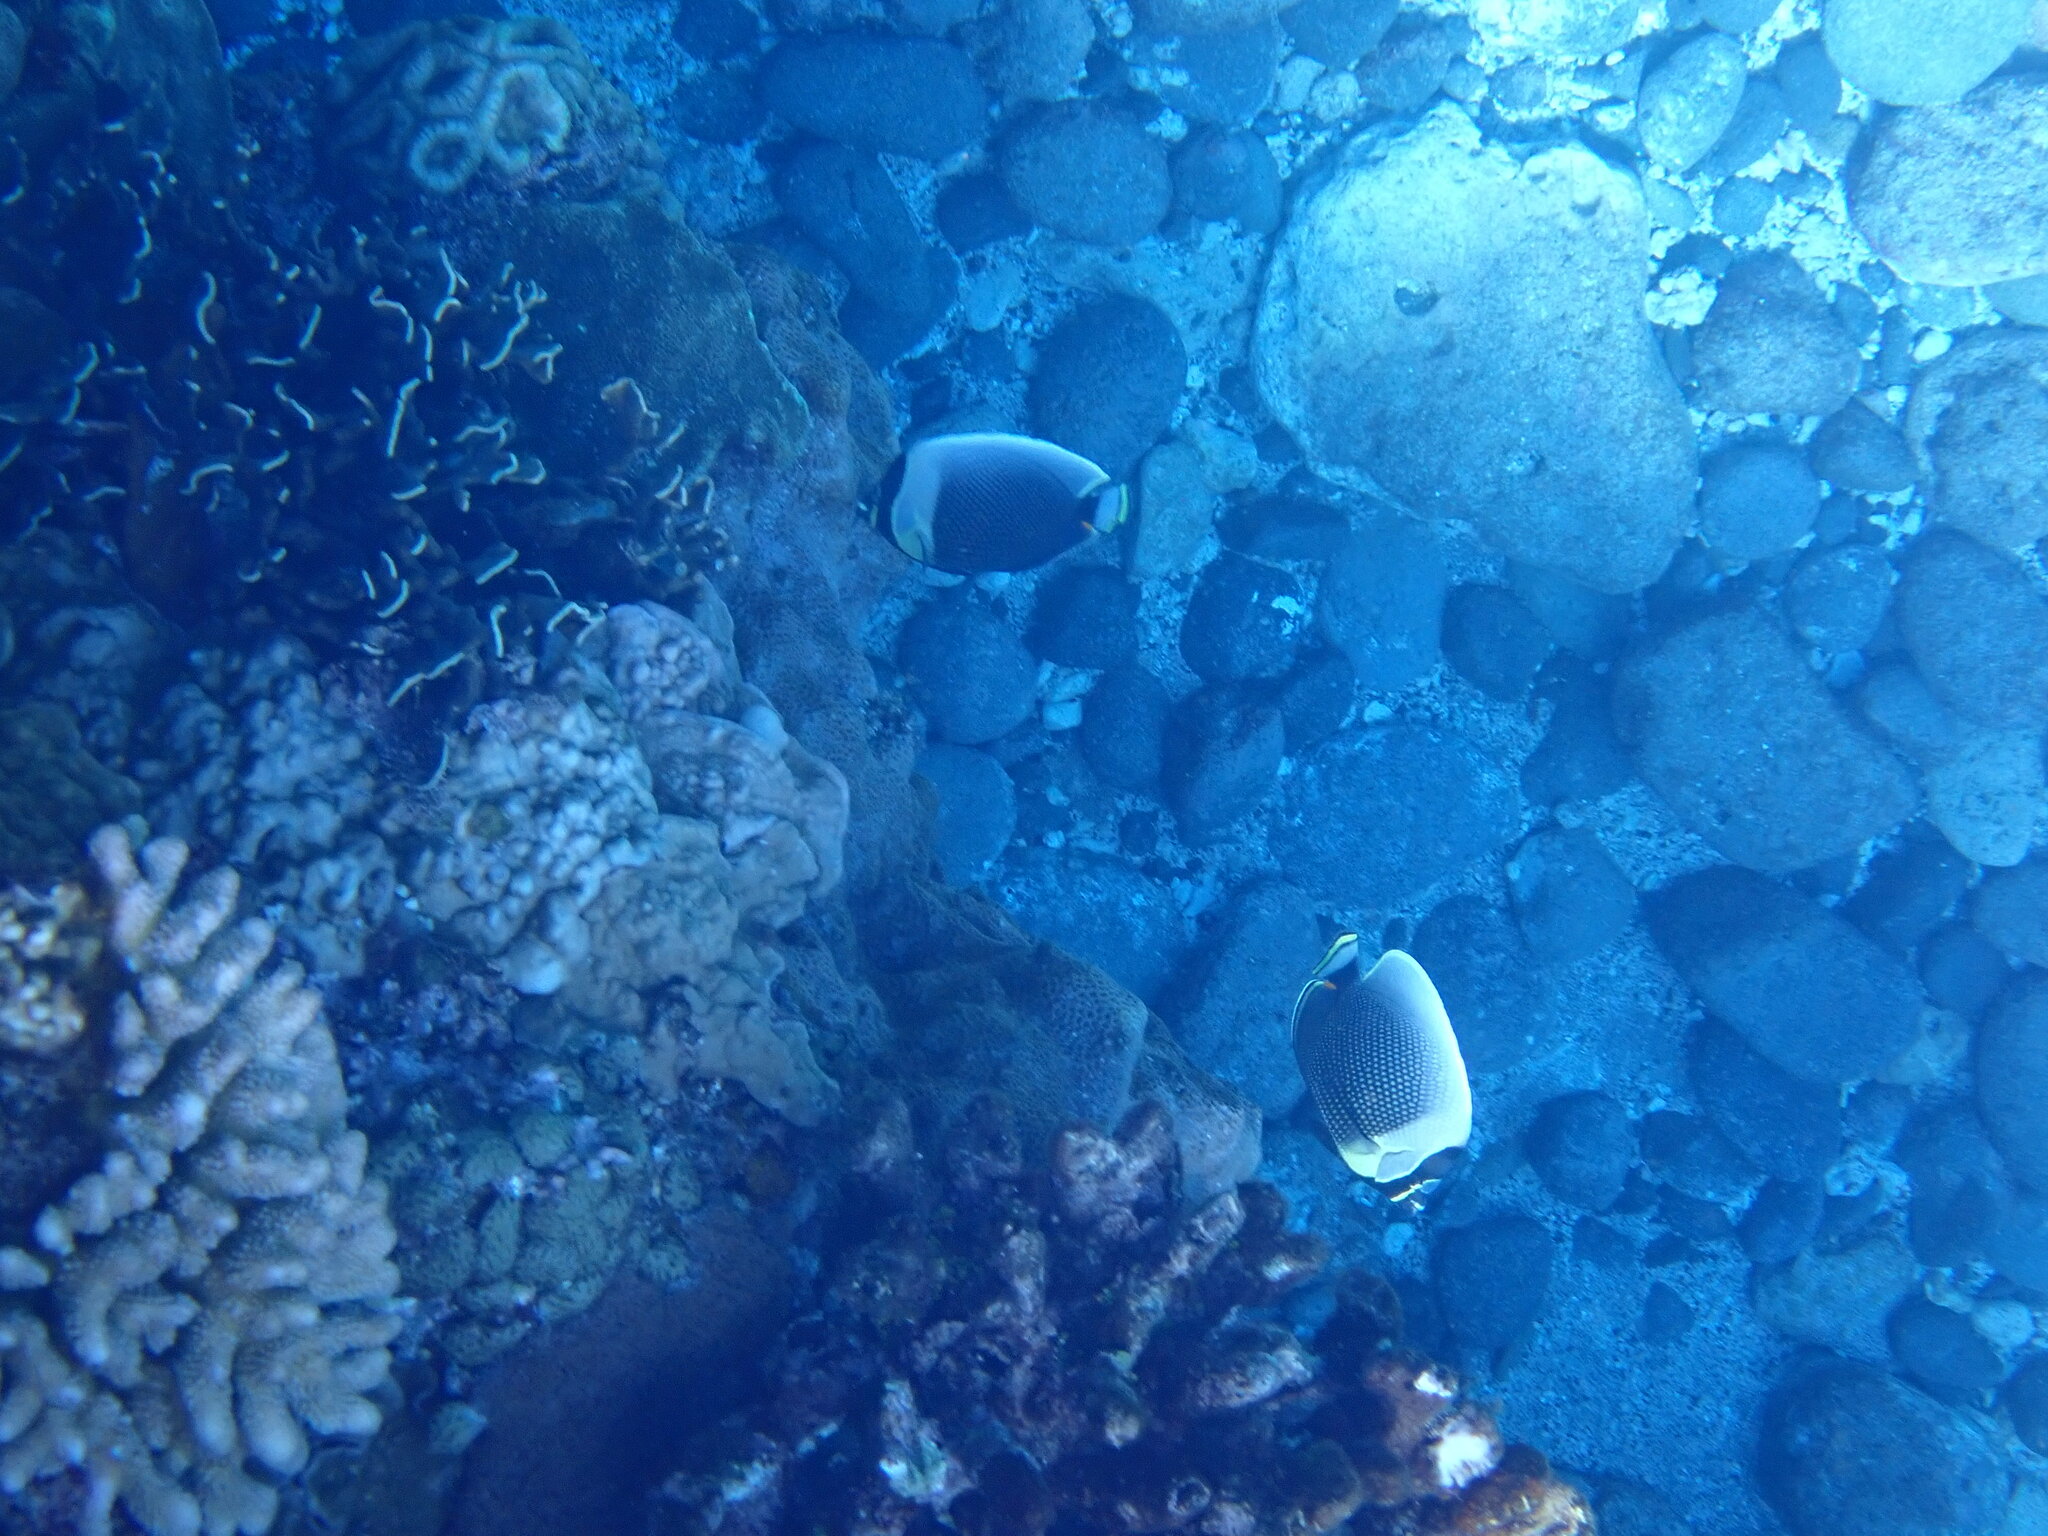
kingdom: Animalia
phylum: Chordata
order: Perciformes
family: Chaetodontidae
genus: Chaetodon
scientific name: Chaetodon reticulatus
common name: Reticulated butterflyfish
